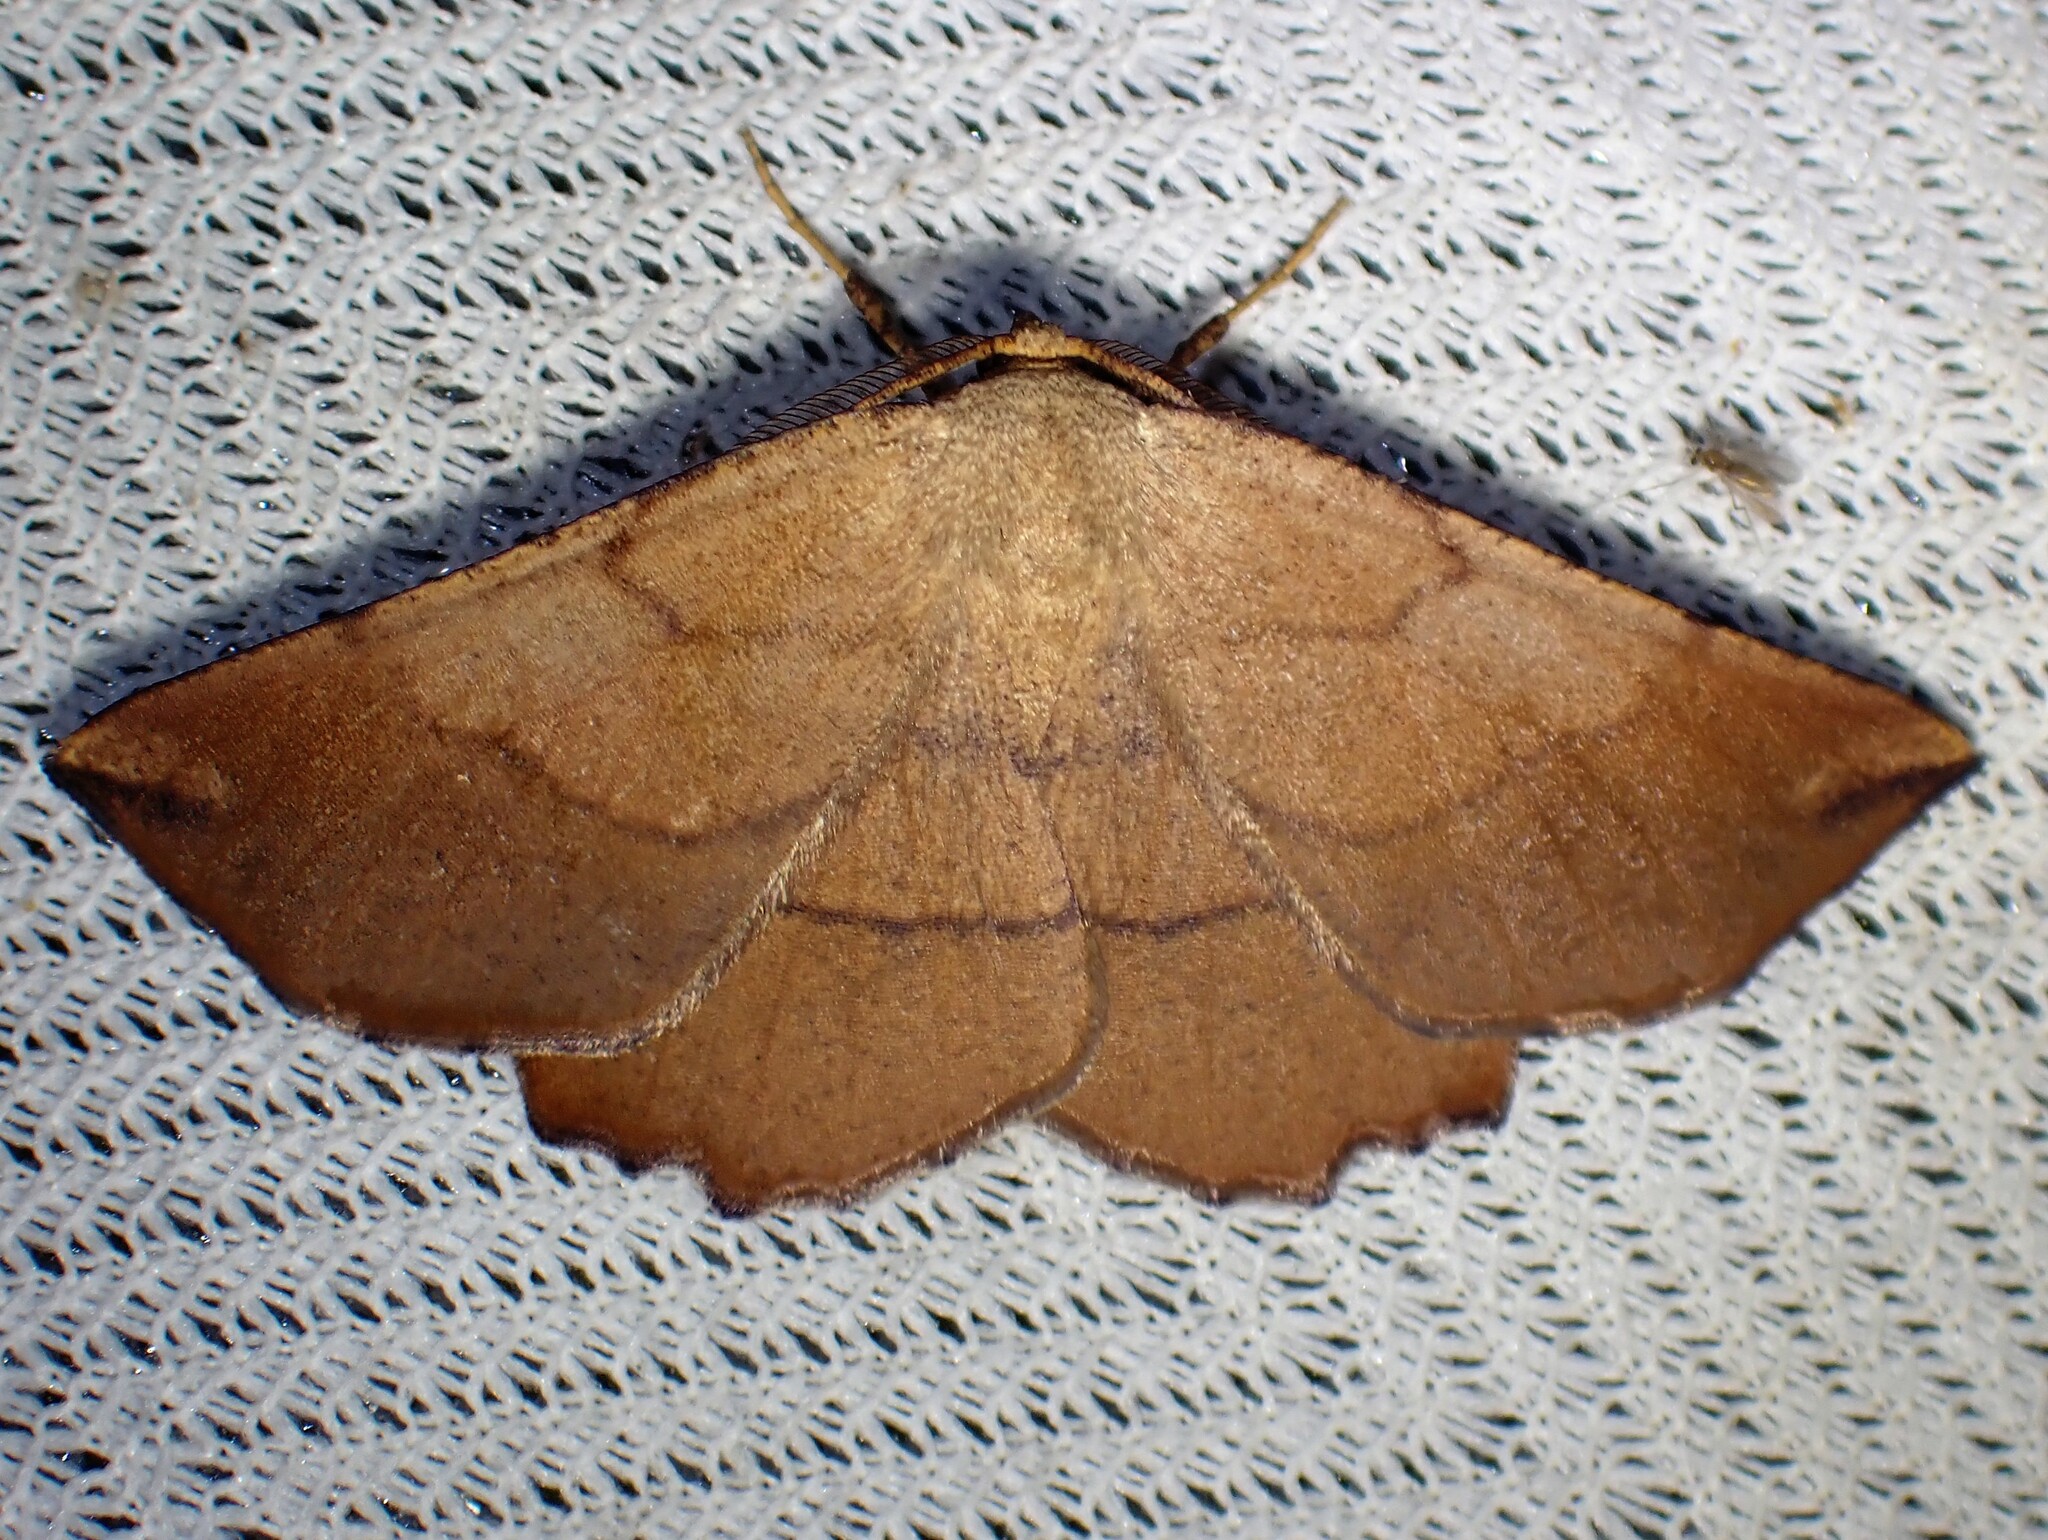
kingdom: Animalia
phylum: Arthropoda
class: Insecta
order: Lepidoptera
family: Geometridae
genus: Euchlaena
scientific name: Euchlaena madusaria
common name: Scrub euchlaena moth
